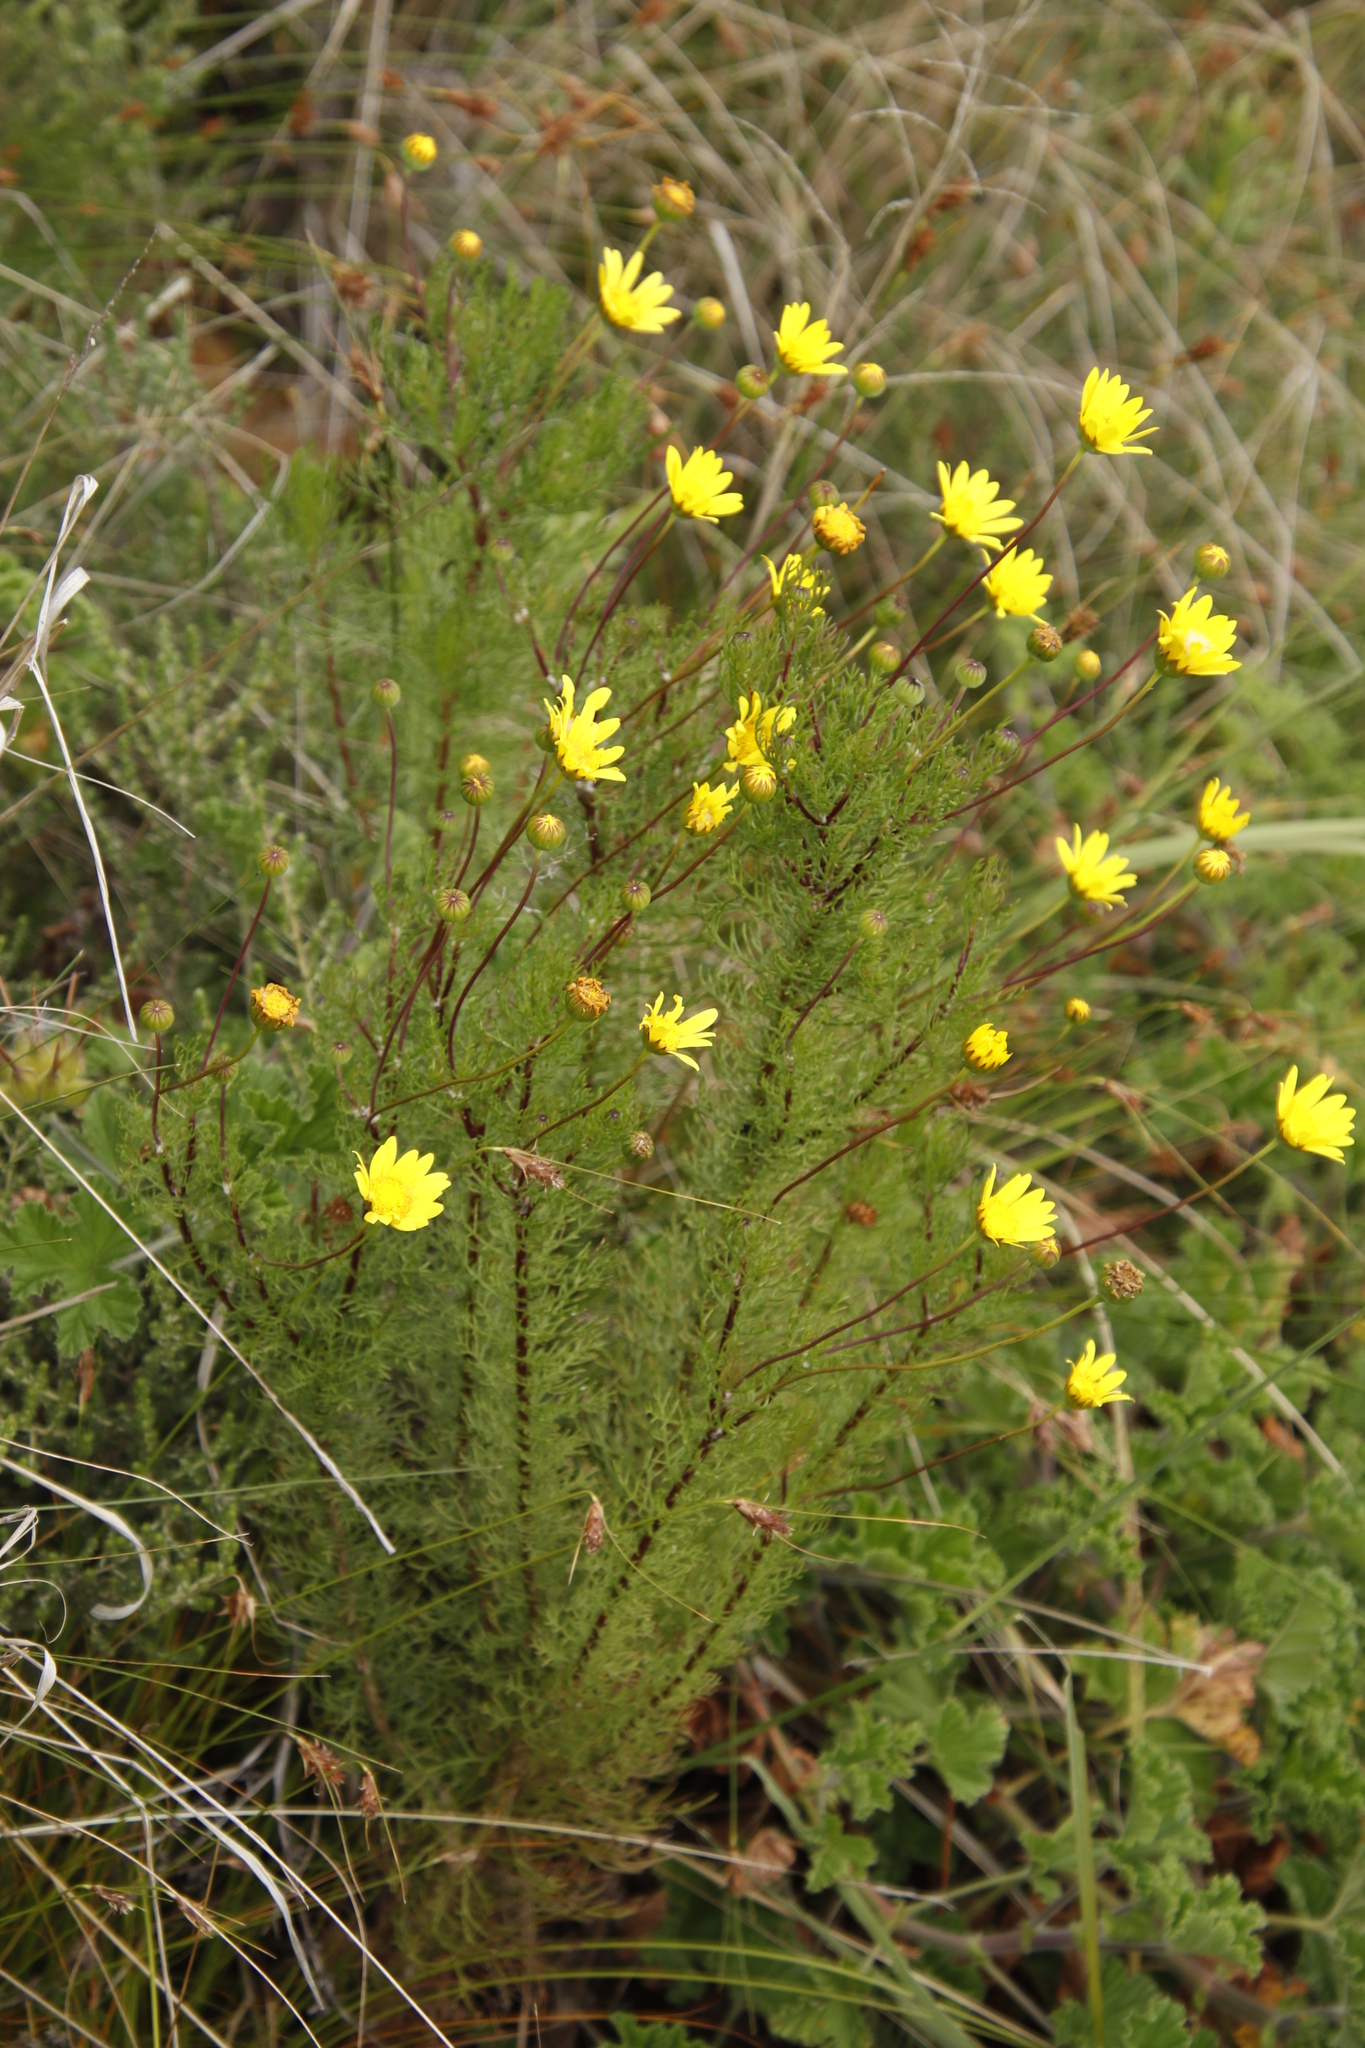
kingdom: Plantae
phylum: Tracheophyta
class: Magnoliopsida
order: Asterales
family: Asteraceae
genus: Euryops
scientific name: Euryops abrotanifolius
